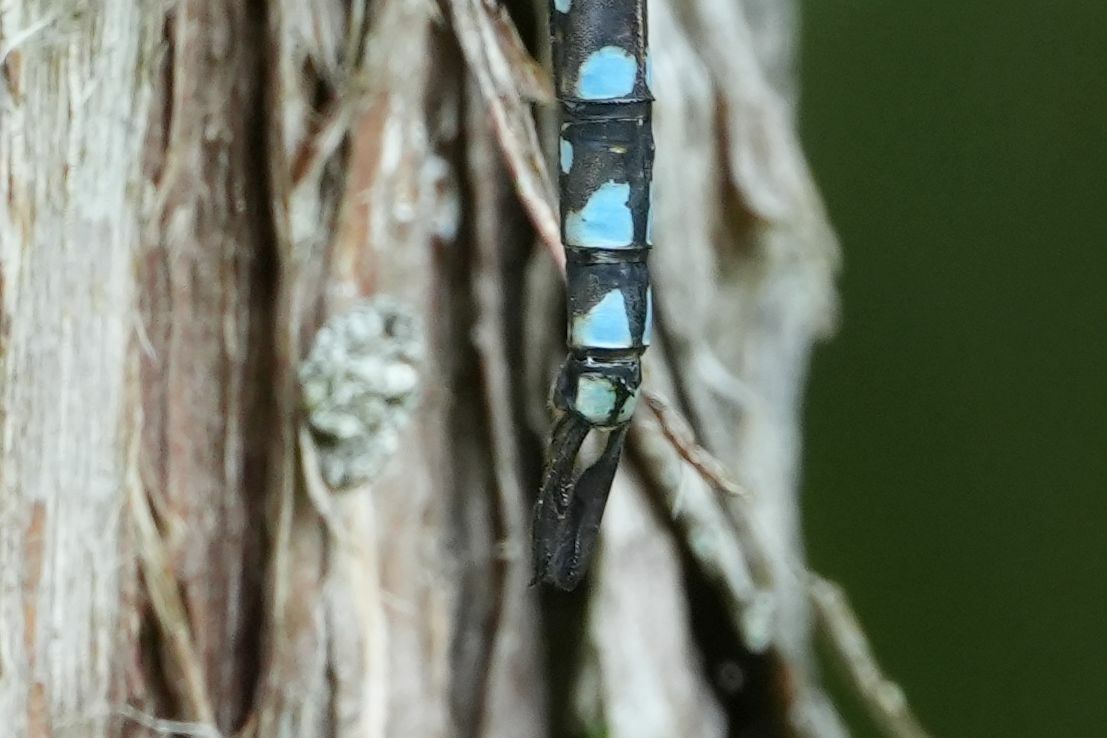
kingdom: Animalia
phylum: Arthropoda
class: Insecta
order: Odonata
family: Aeshnidae
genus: Aeshna
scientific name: Aeshna canadensis
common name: Canada darner
